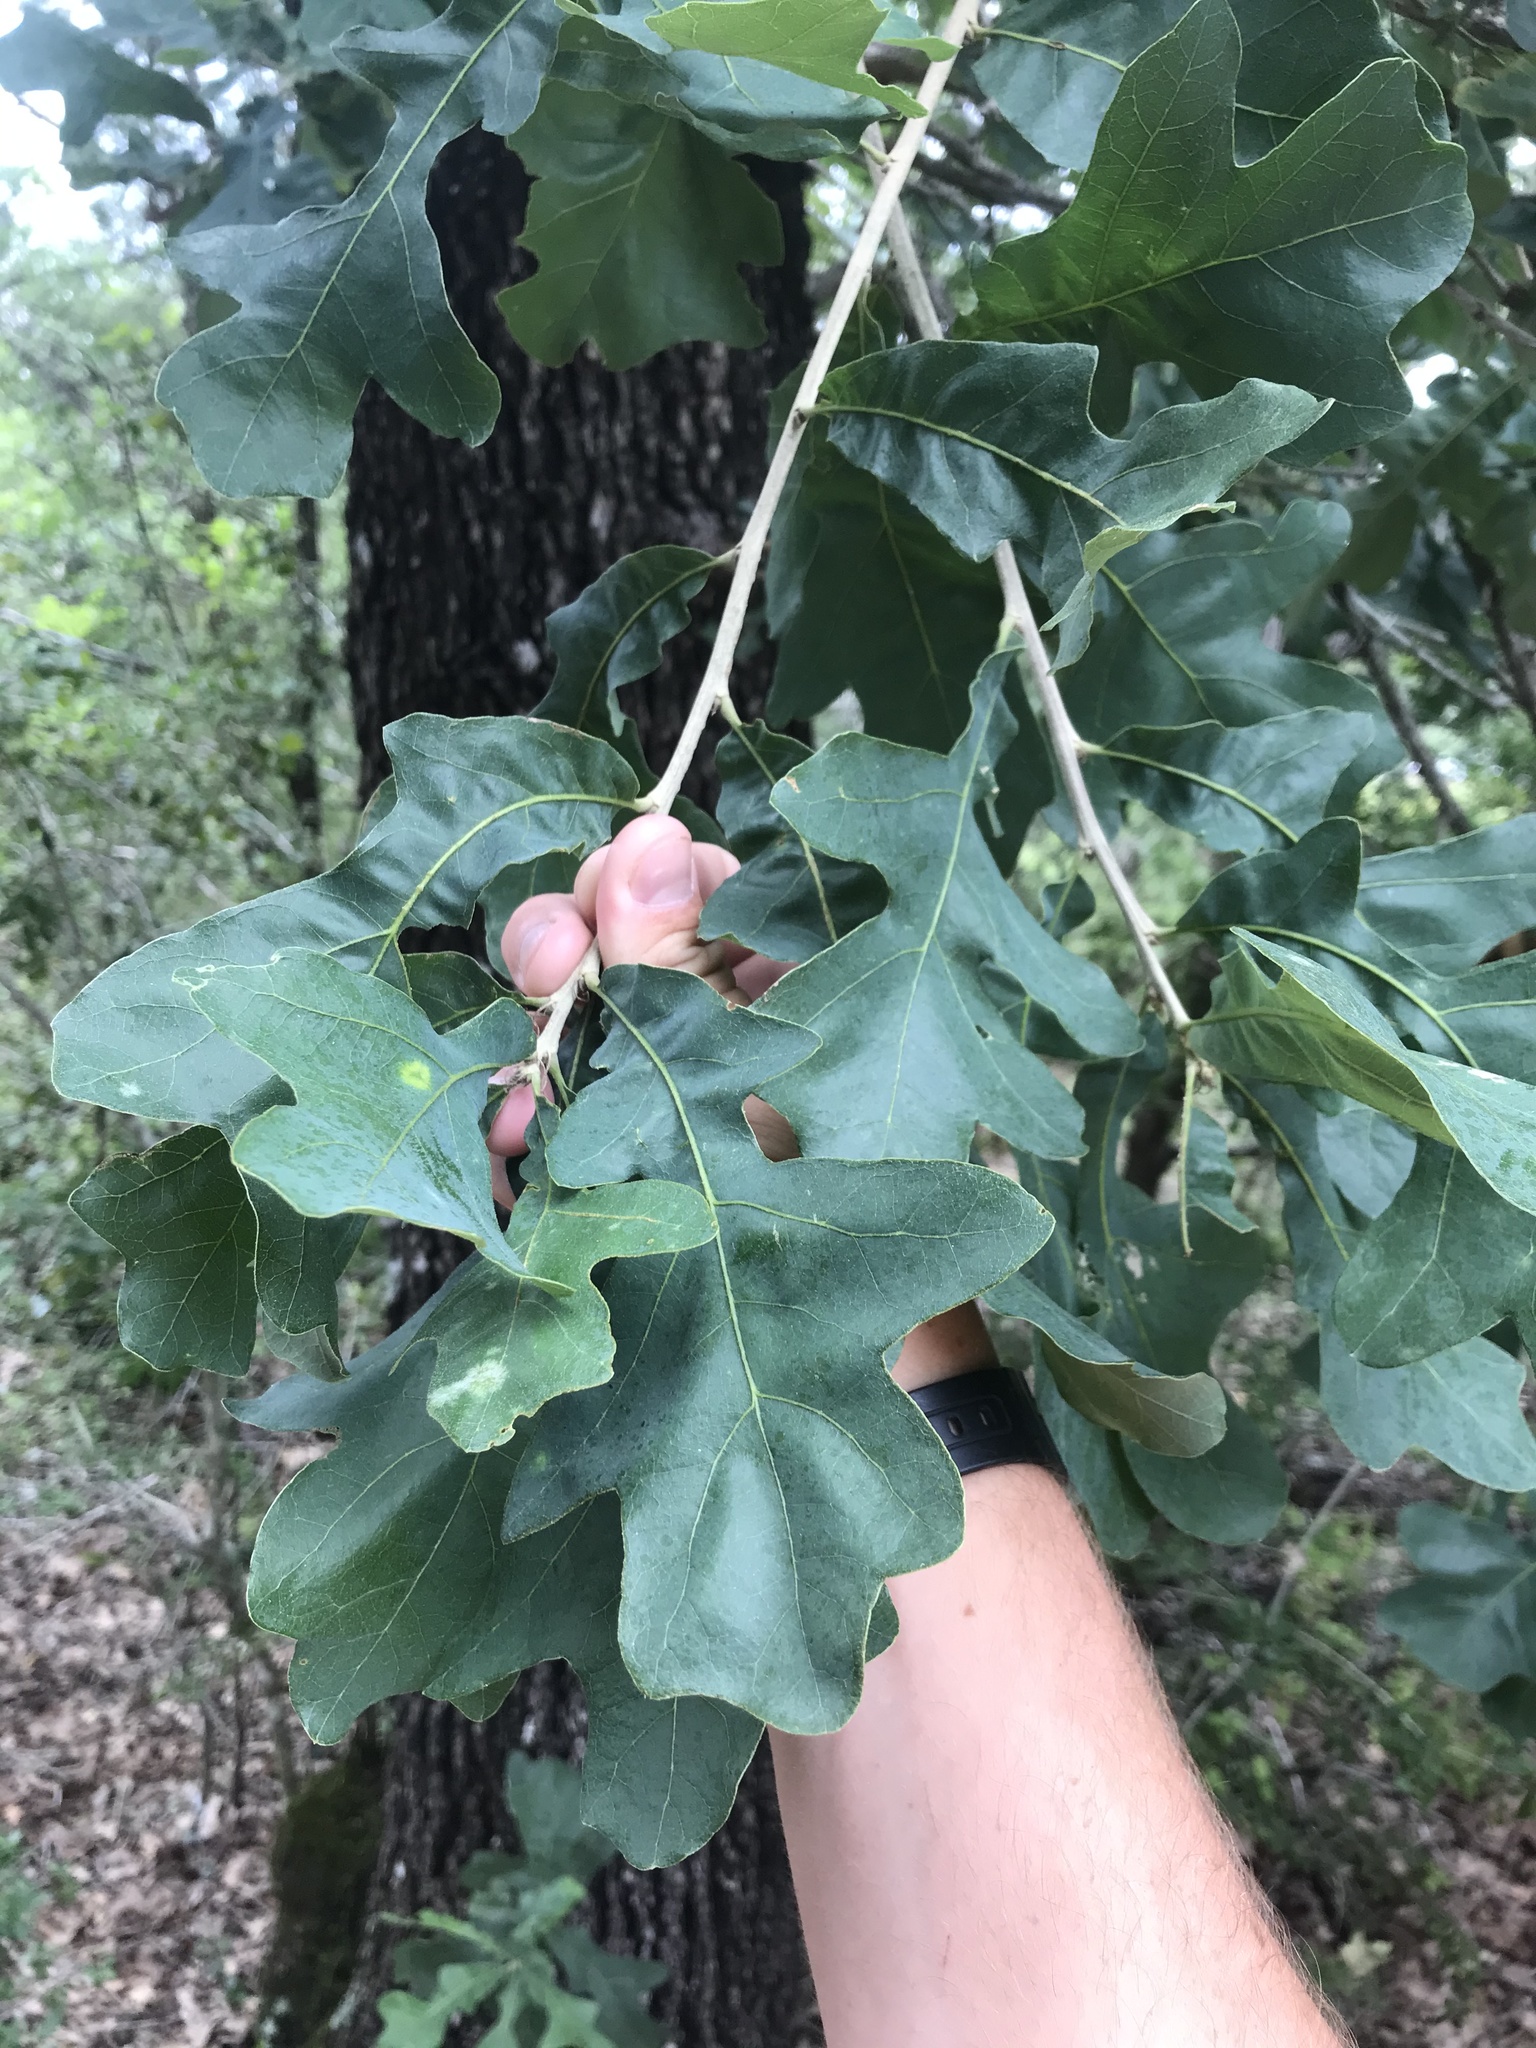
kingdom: Plantae
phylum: Tracheophyta
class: Magnoliopsida
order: Fagales
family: Fagaceae
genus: Quercus
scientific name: Quercus stellata
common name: Post oak
